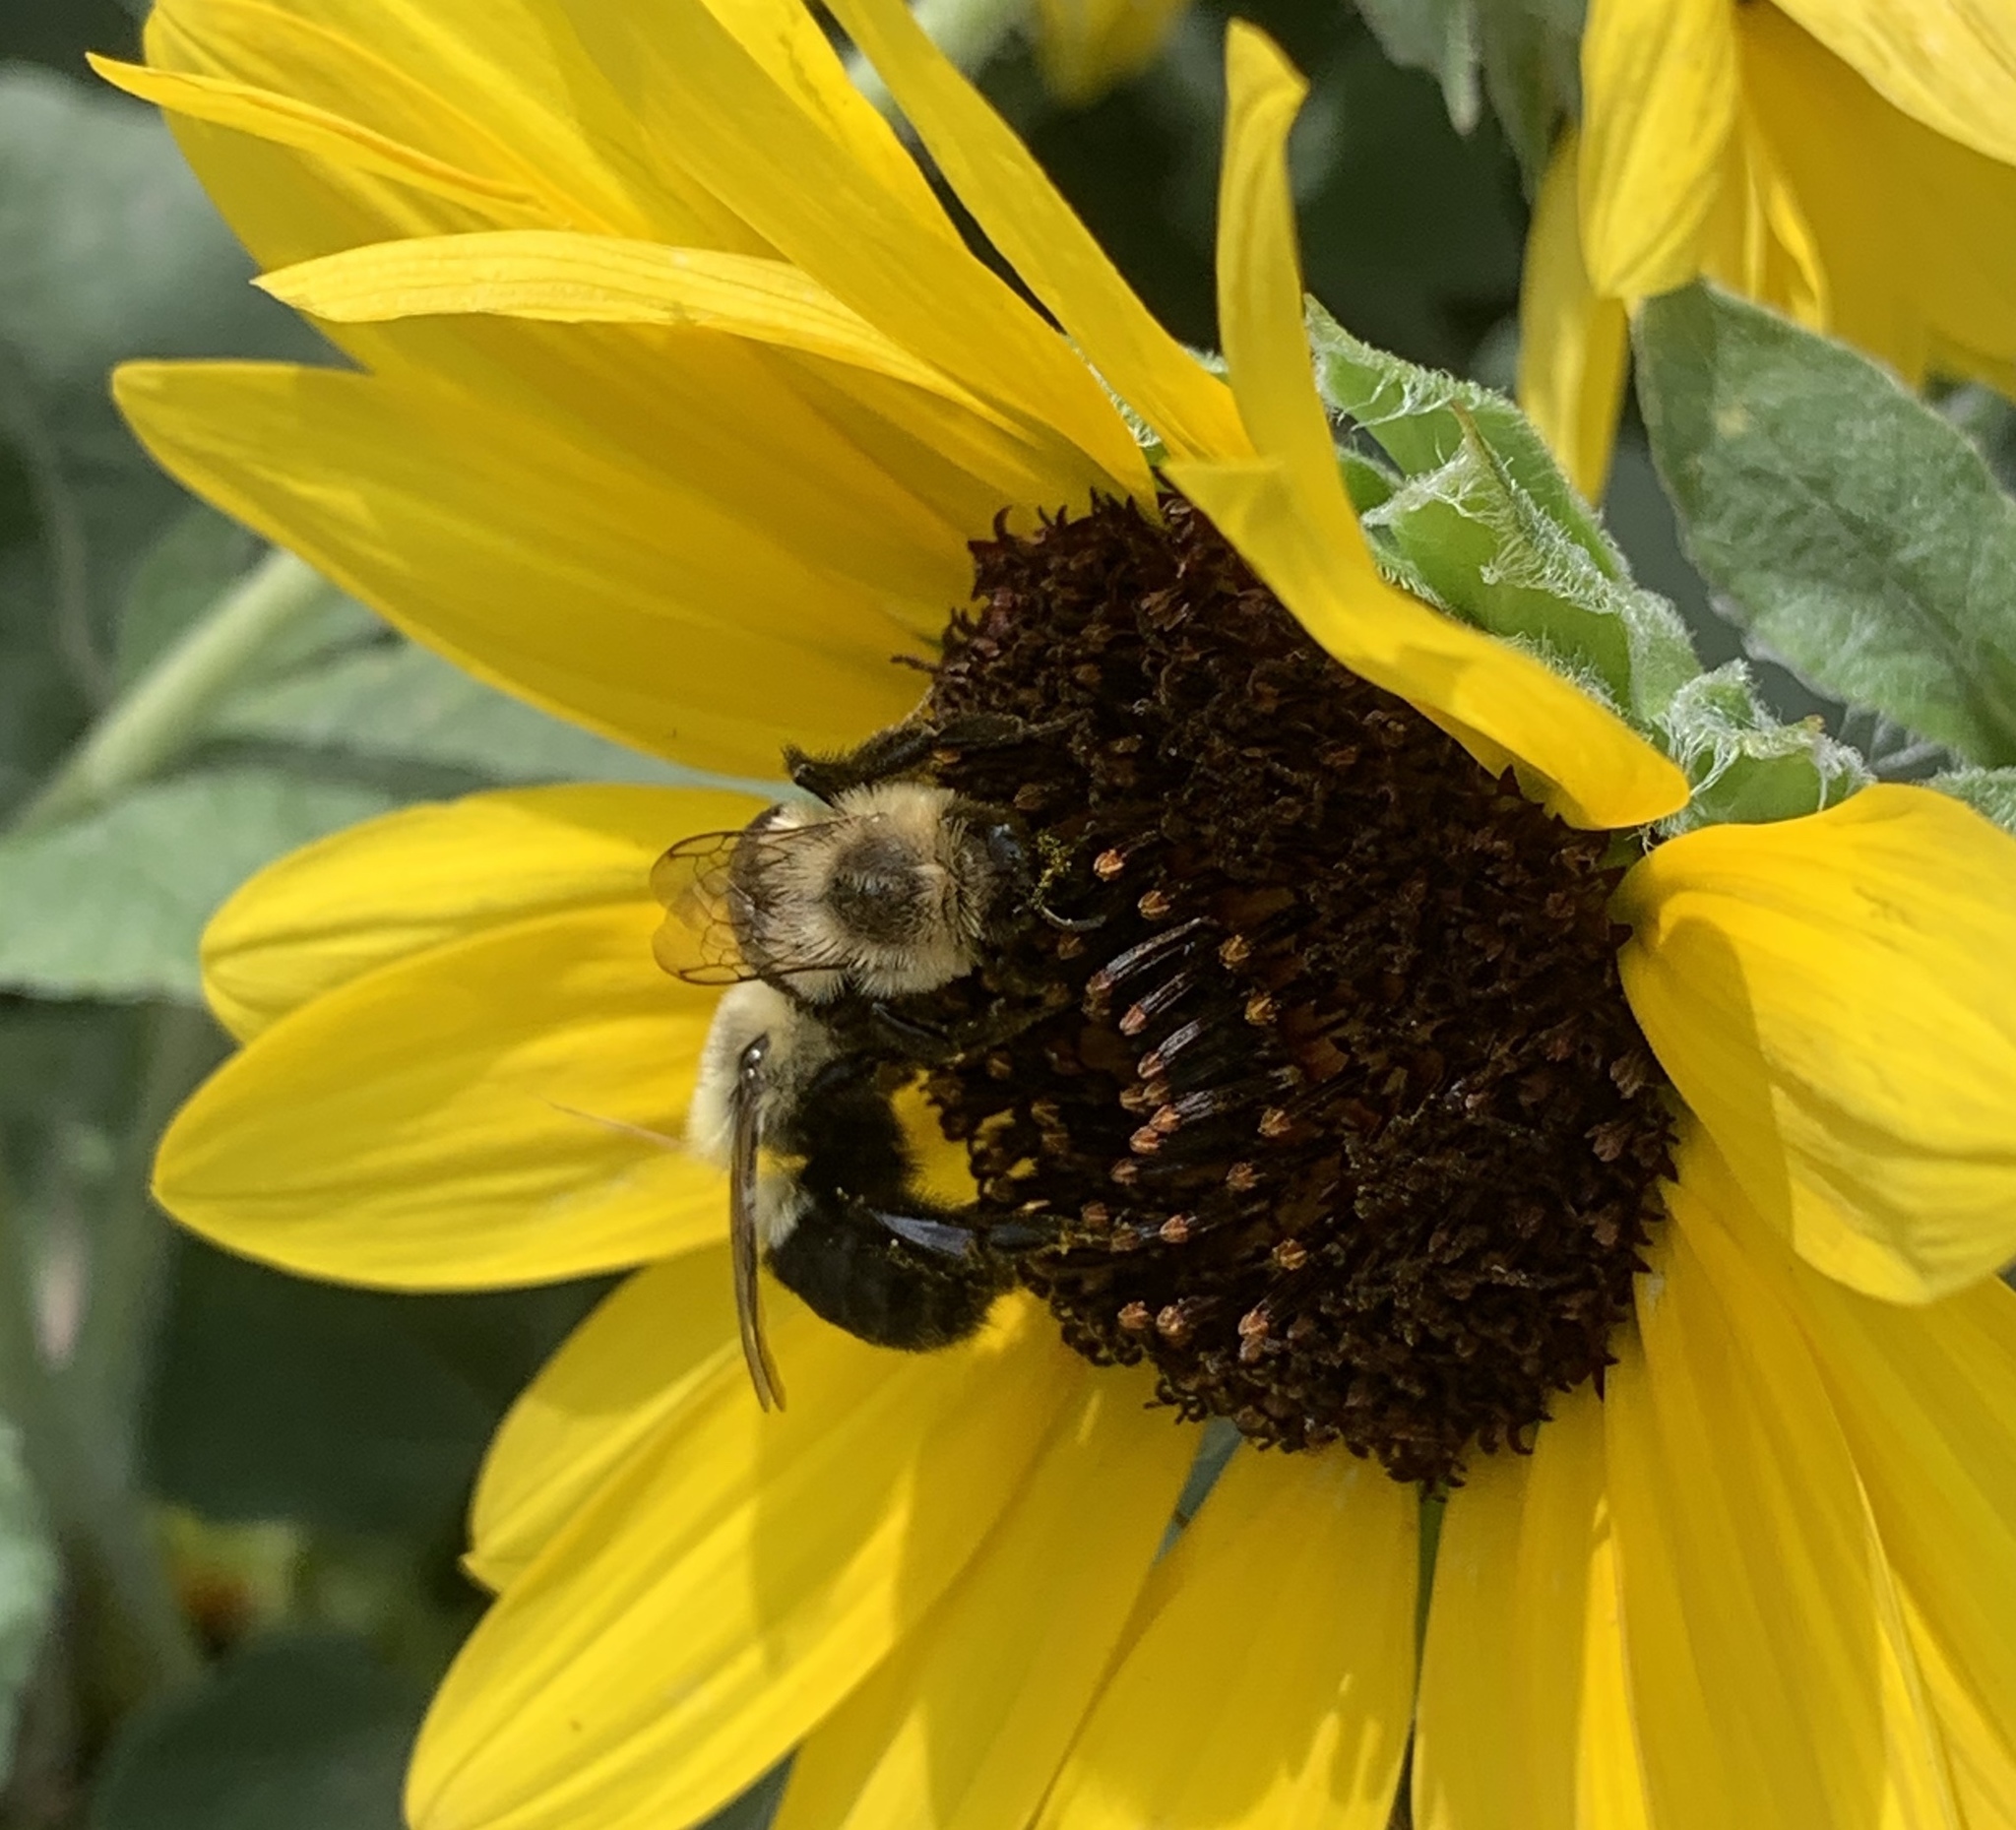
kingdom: Animalia
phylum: Arthropoda
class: Insecta
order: Hymenoptera
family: Apidae
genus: Bombus
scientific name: Bombus impatiens
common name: Common eastern bumble bee
